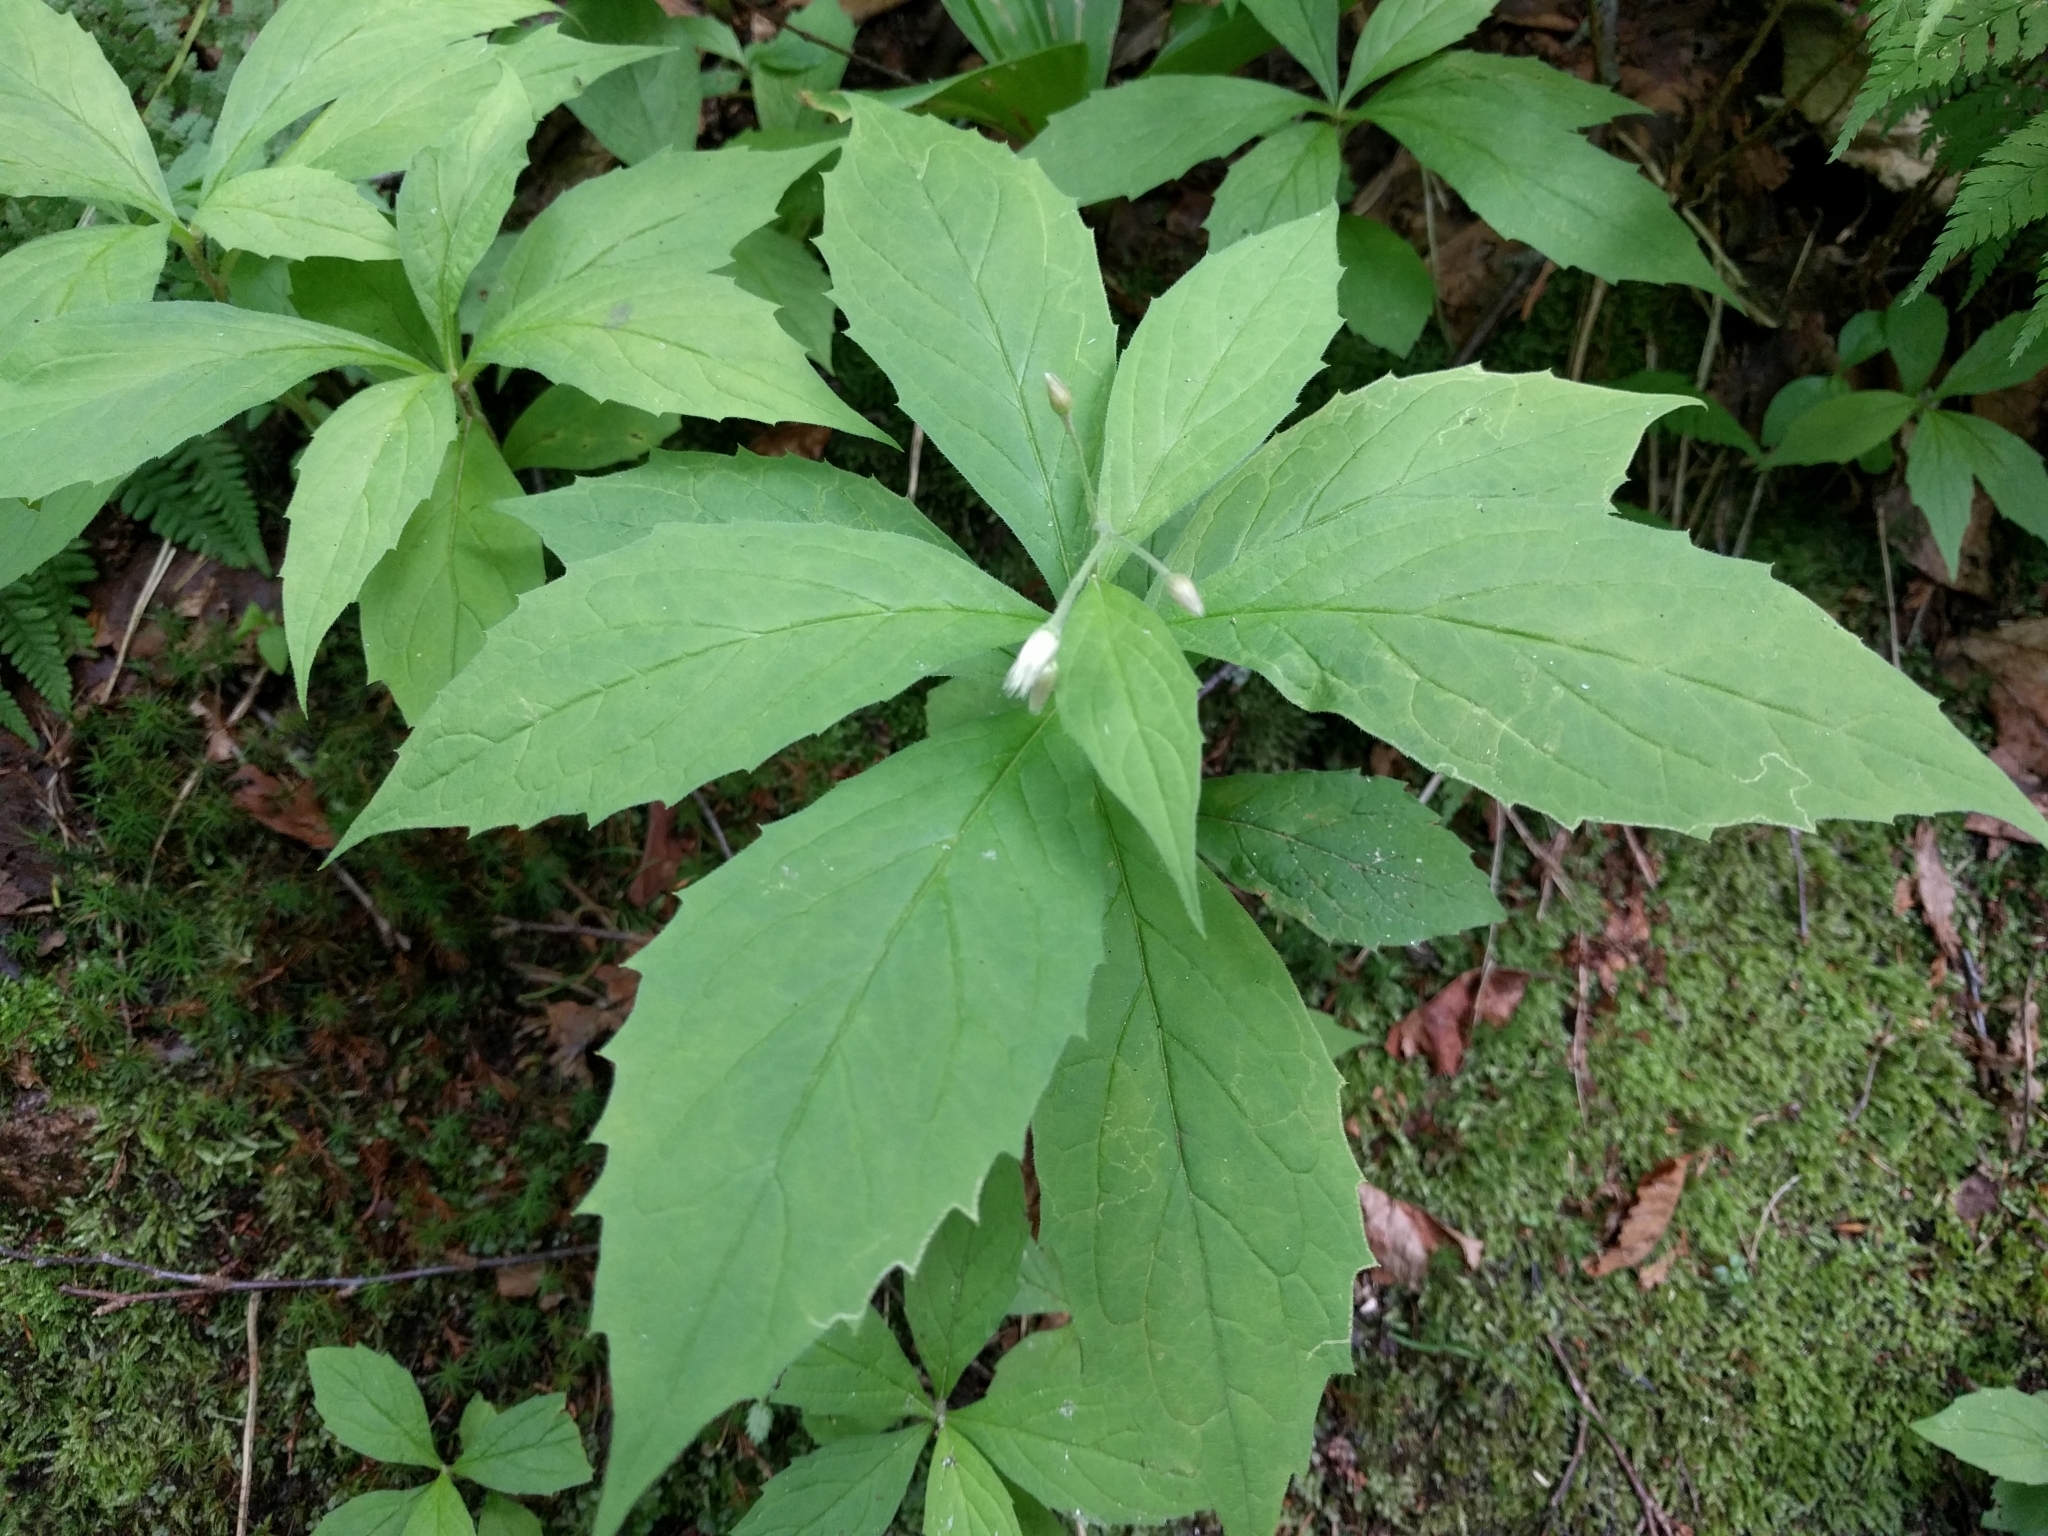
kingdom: Plantae
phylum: Tracheophyta
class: Magnoliopsida
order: Asterales
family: Asteraceae
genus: Oclemena
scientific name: Oclemena acuminata
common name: Mountain aster
